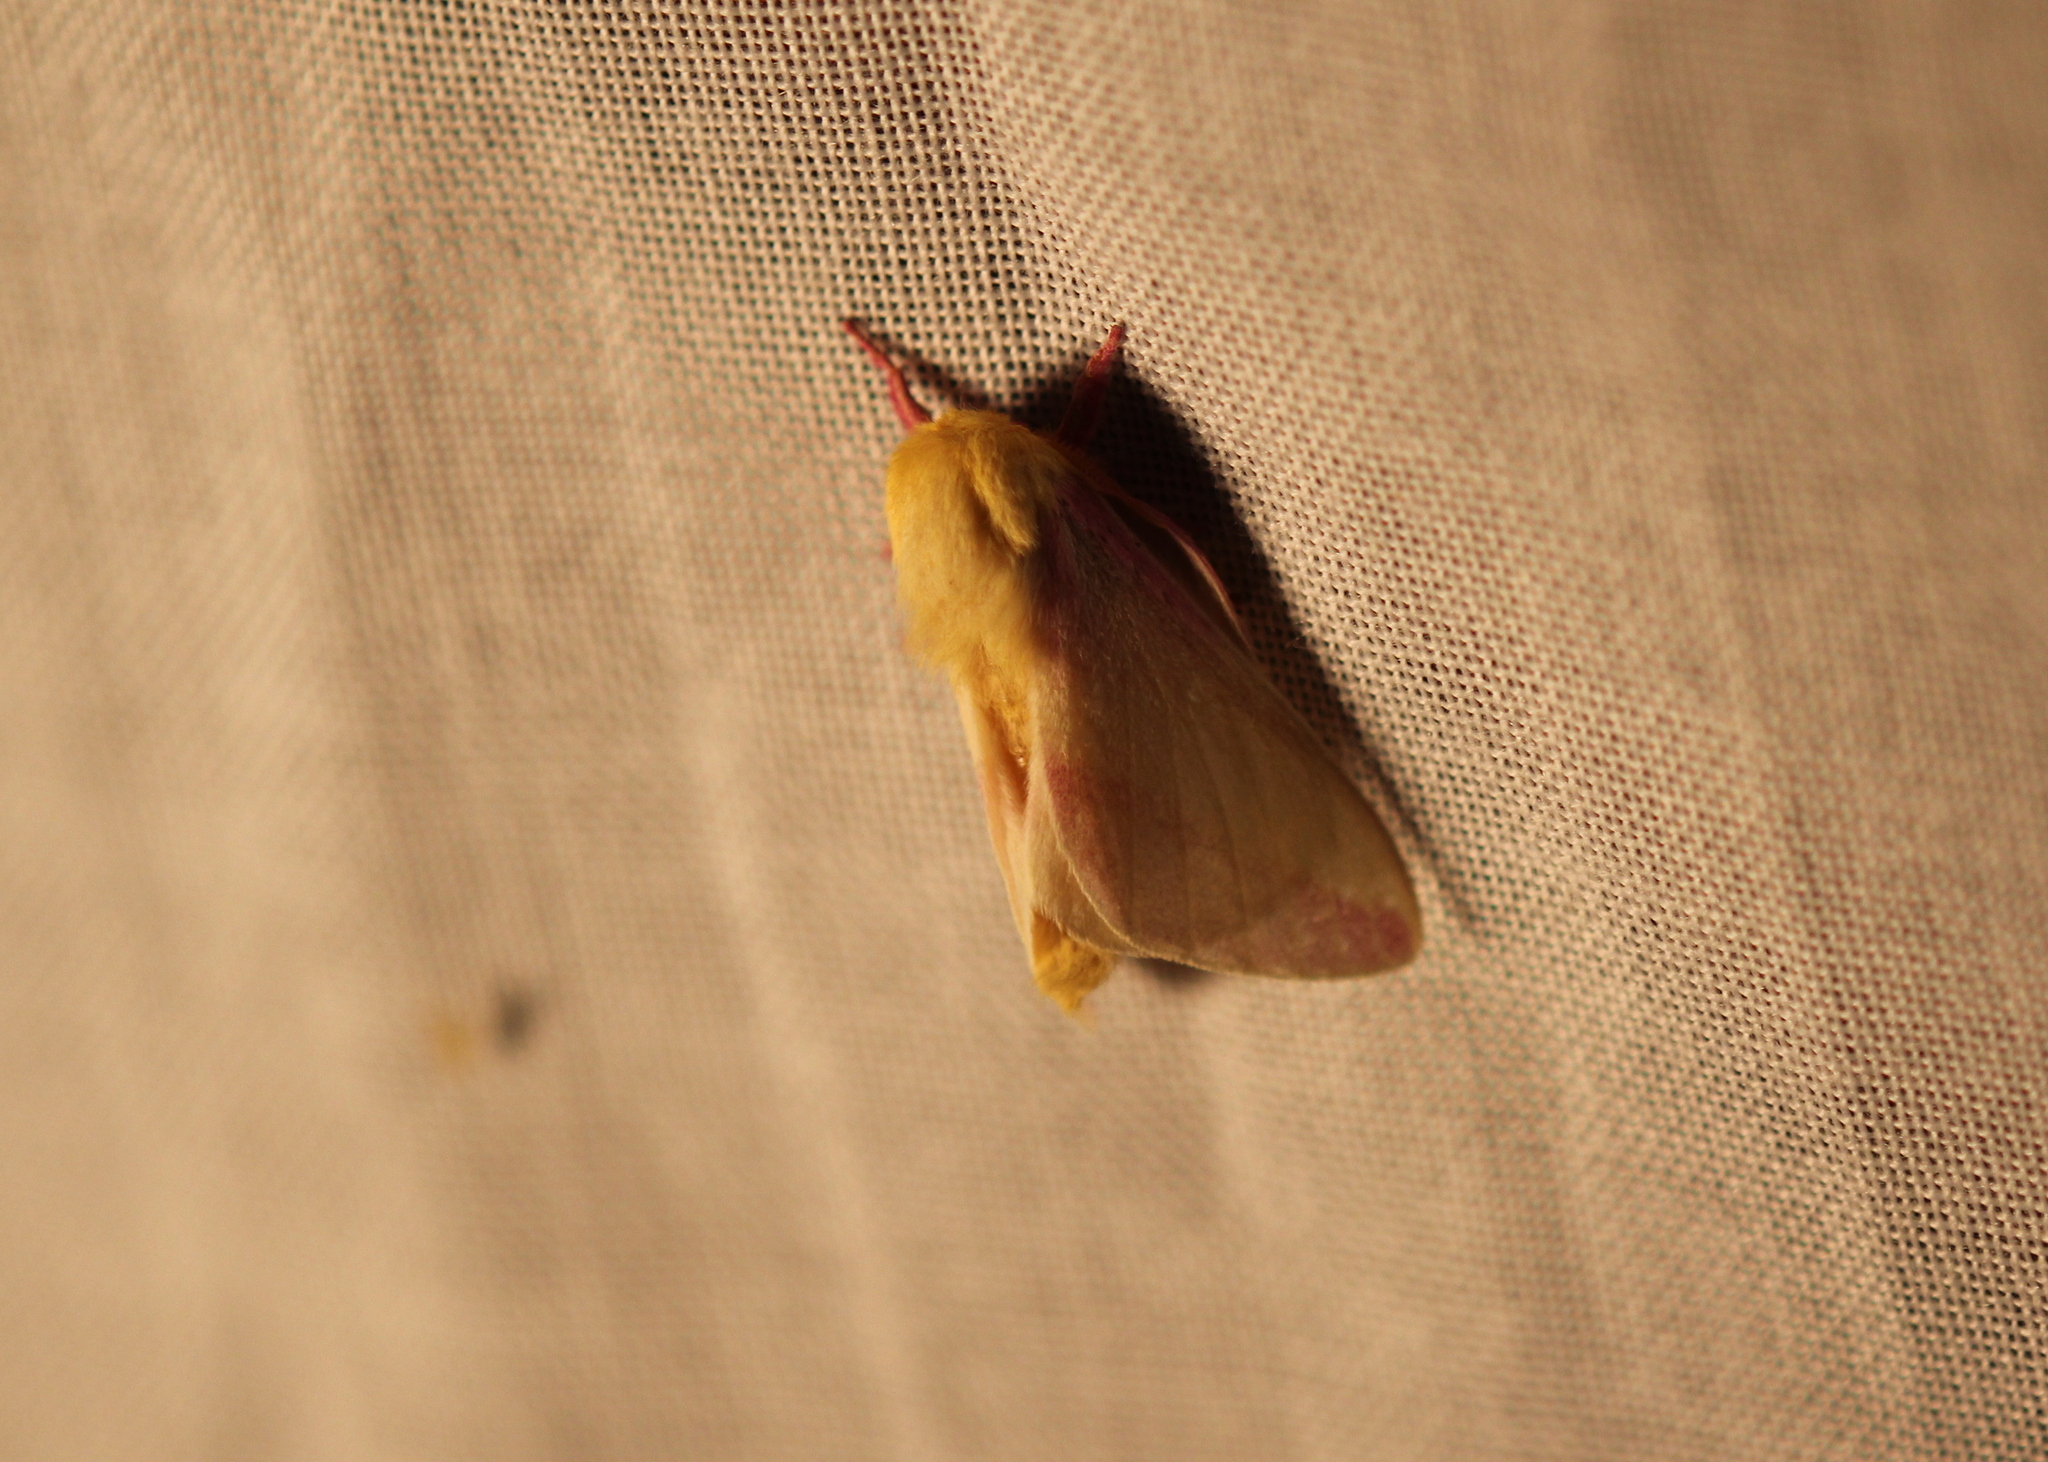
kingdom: Animalia
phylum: Arthropoda
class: Insecta
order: Lepidoptera
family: Saturniidae
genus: Dryocampa
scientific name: Dryocampa rubicunda
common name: Rosy maple moth
